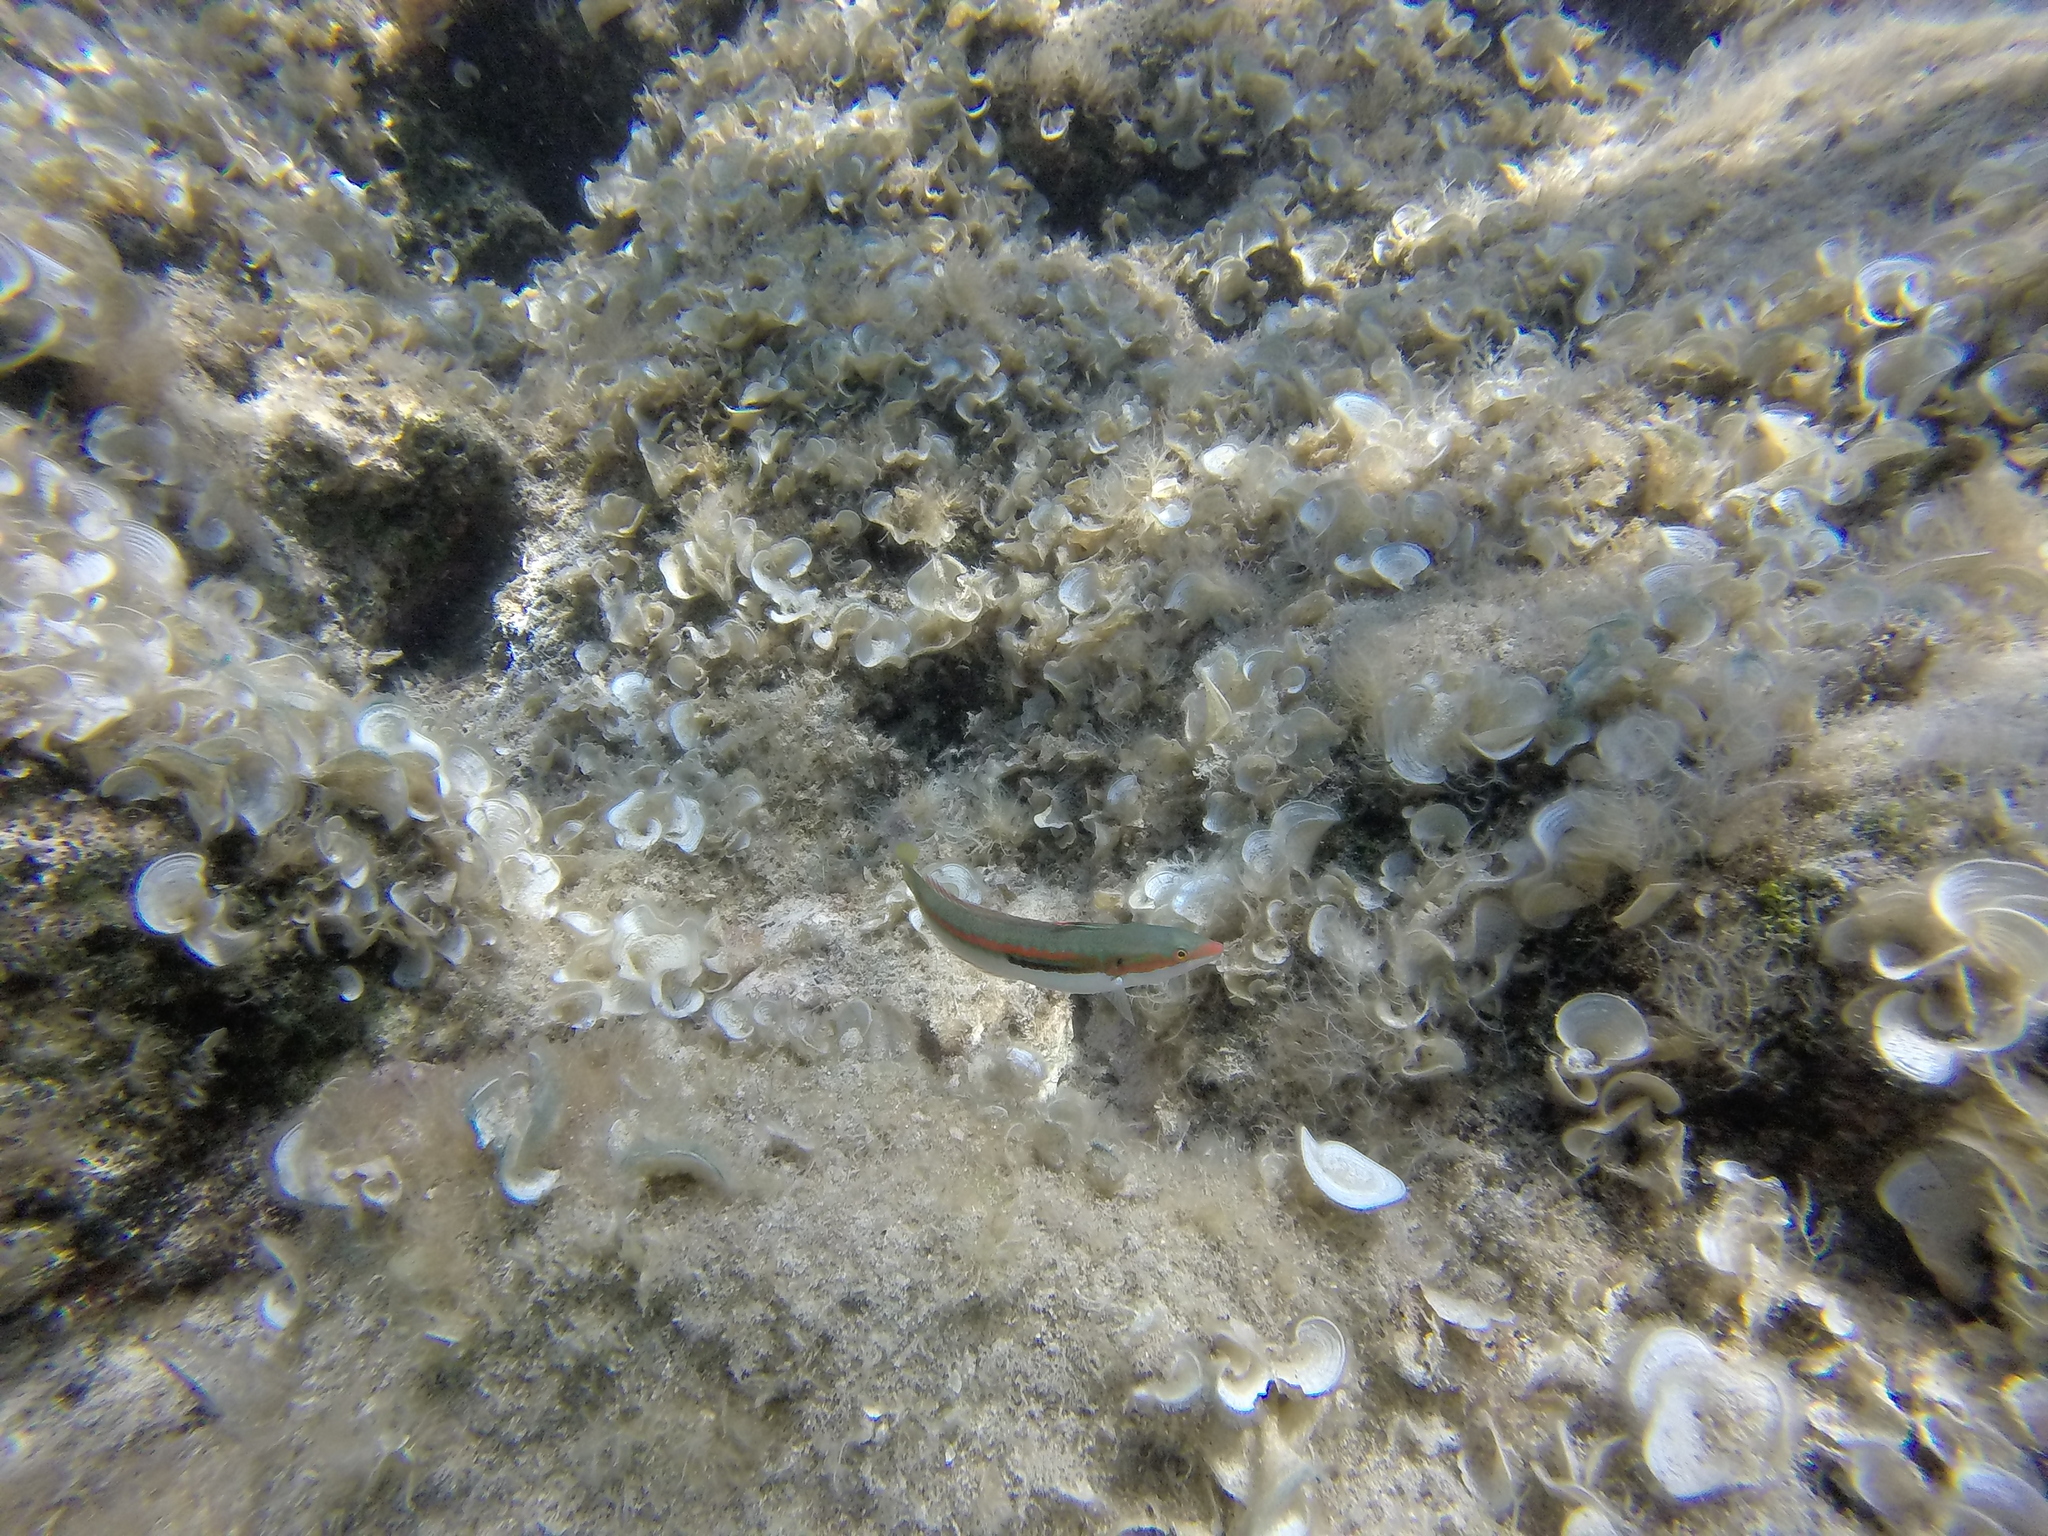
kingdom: Animalia
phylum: Chordata
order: Perciformes
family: Labridae
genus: Coris
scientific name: Coris julis
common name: Rainbow wrasse
